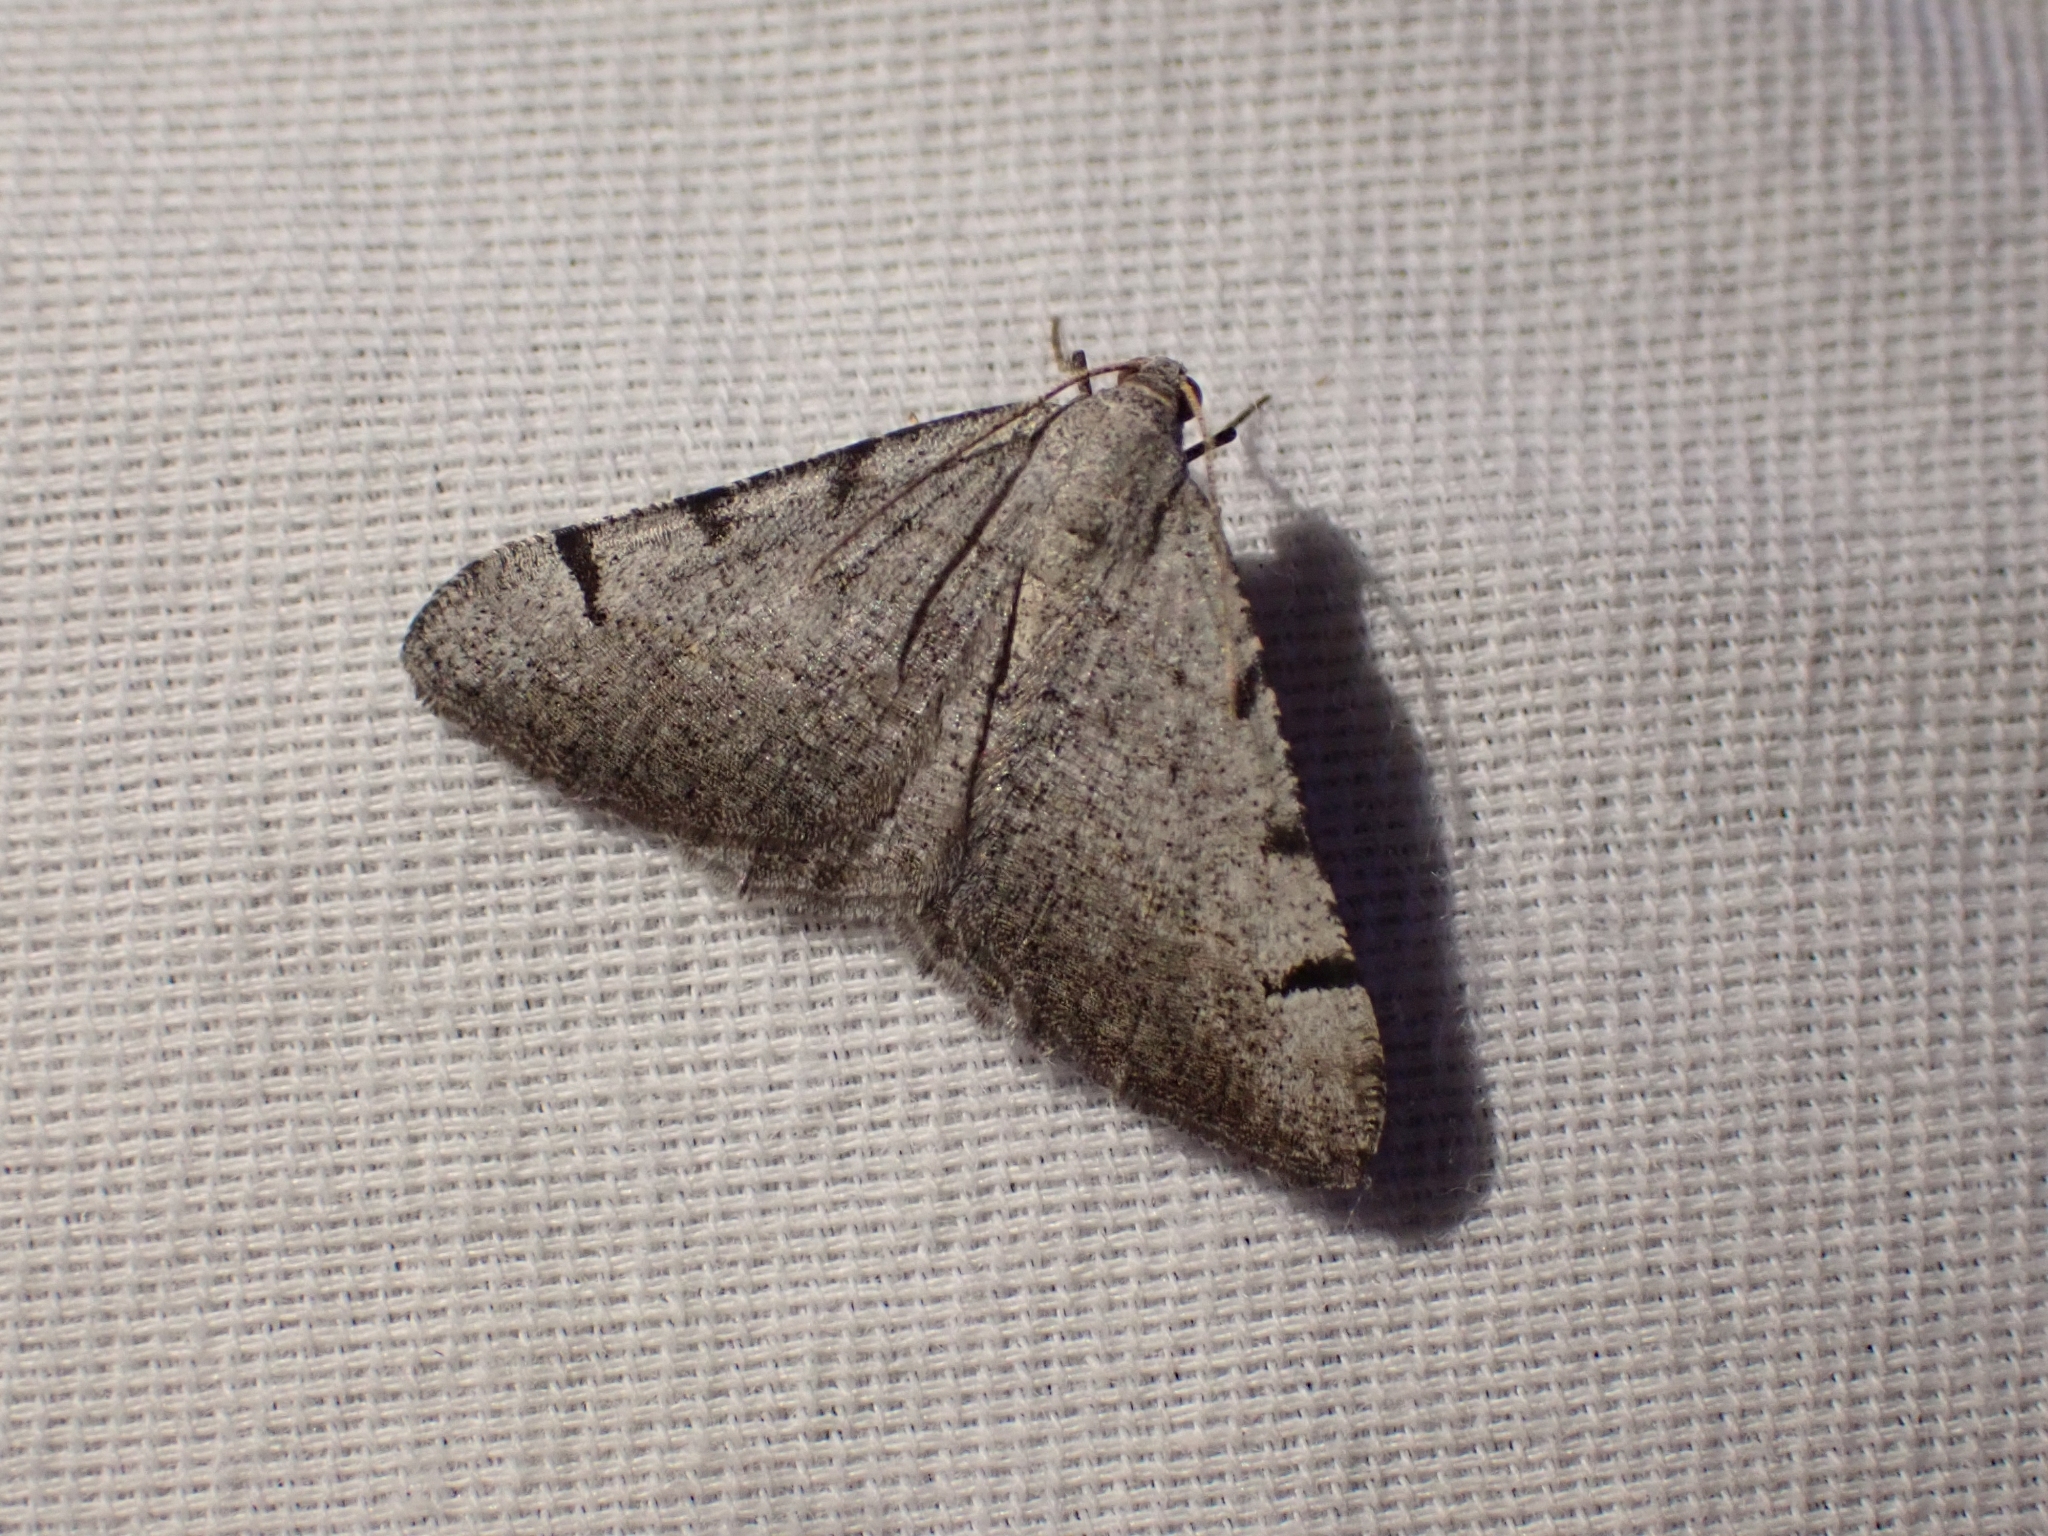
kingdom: Animalia
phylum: Arthropoda
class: Insecta
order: Lepidoptera
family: Geometridae
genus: Digrammia
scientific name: Digrammia triviata
